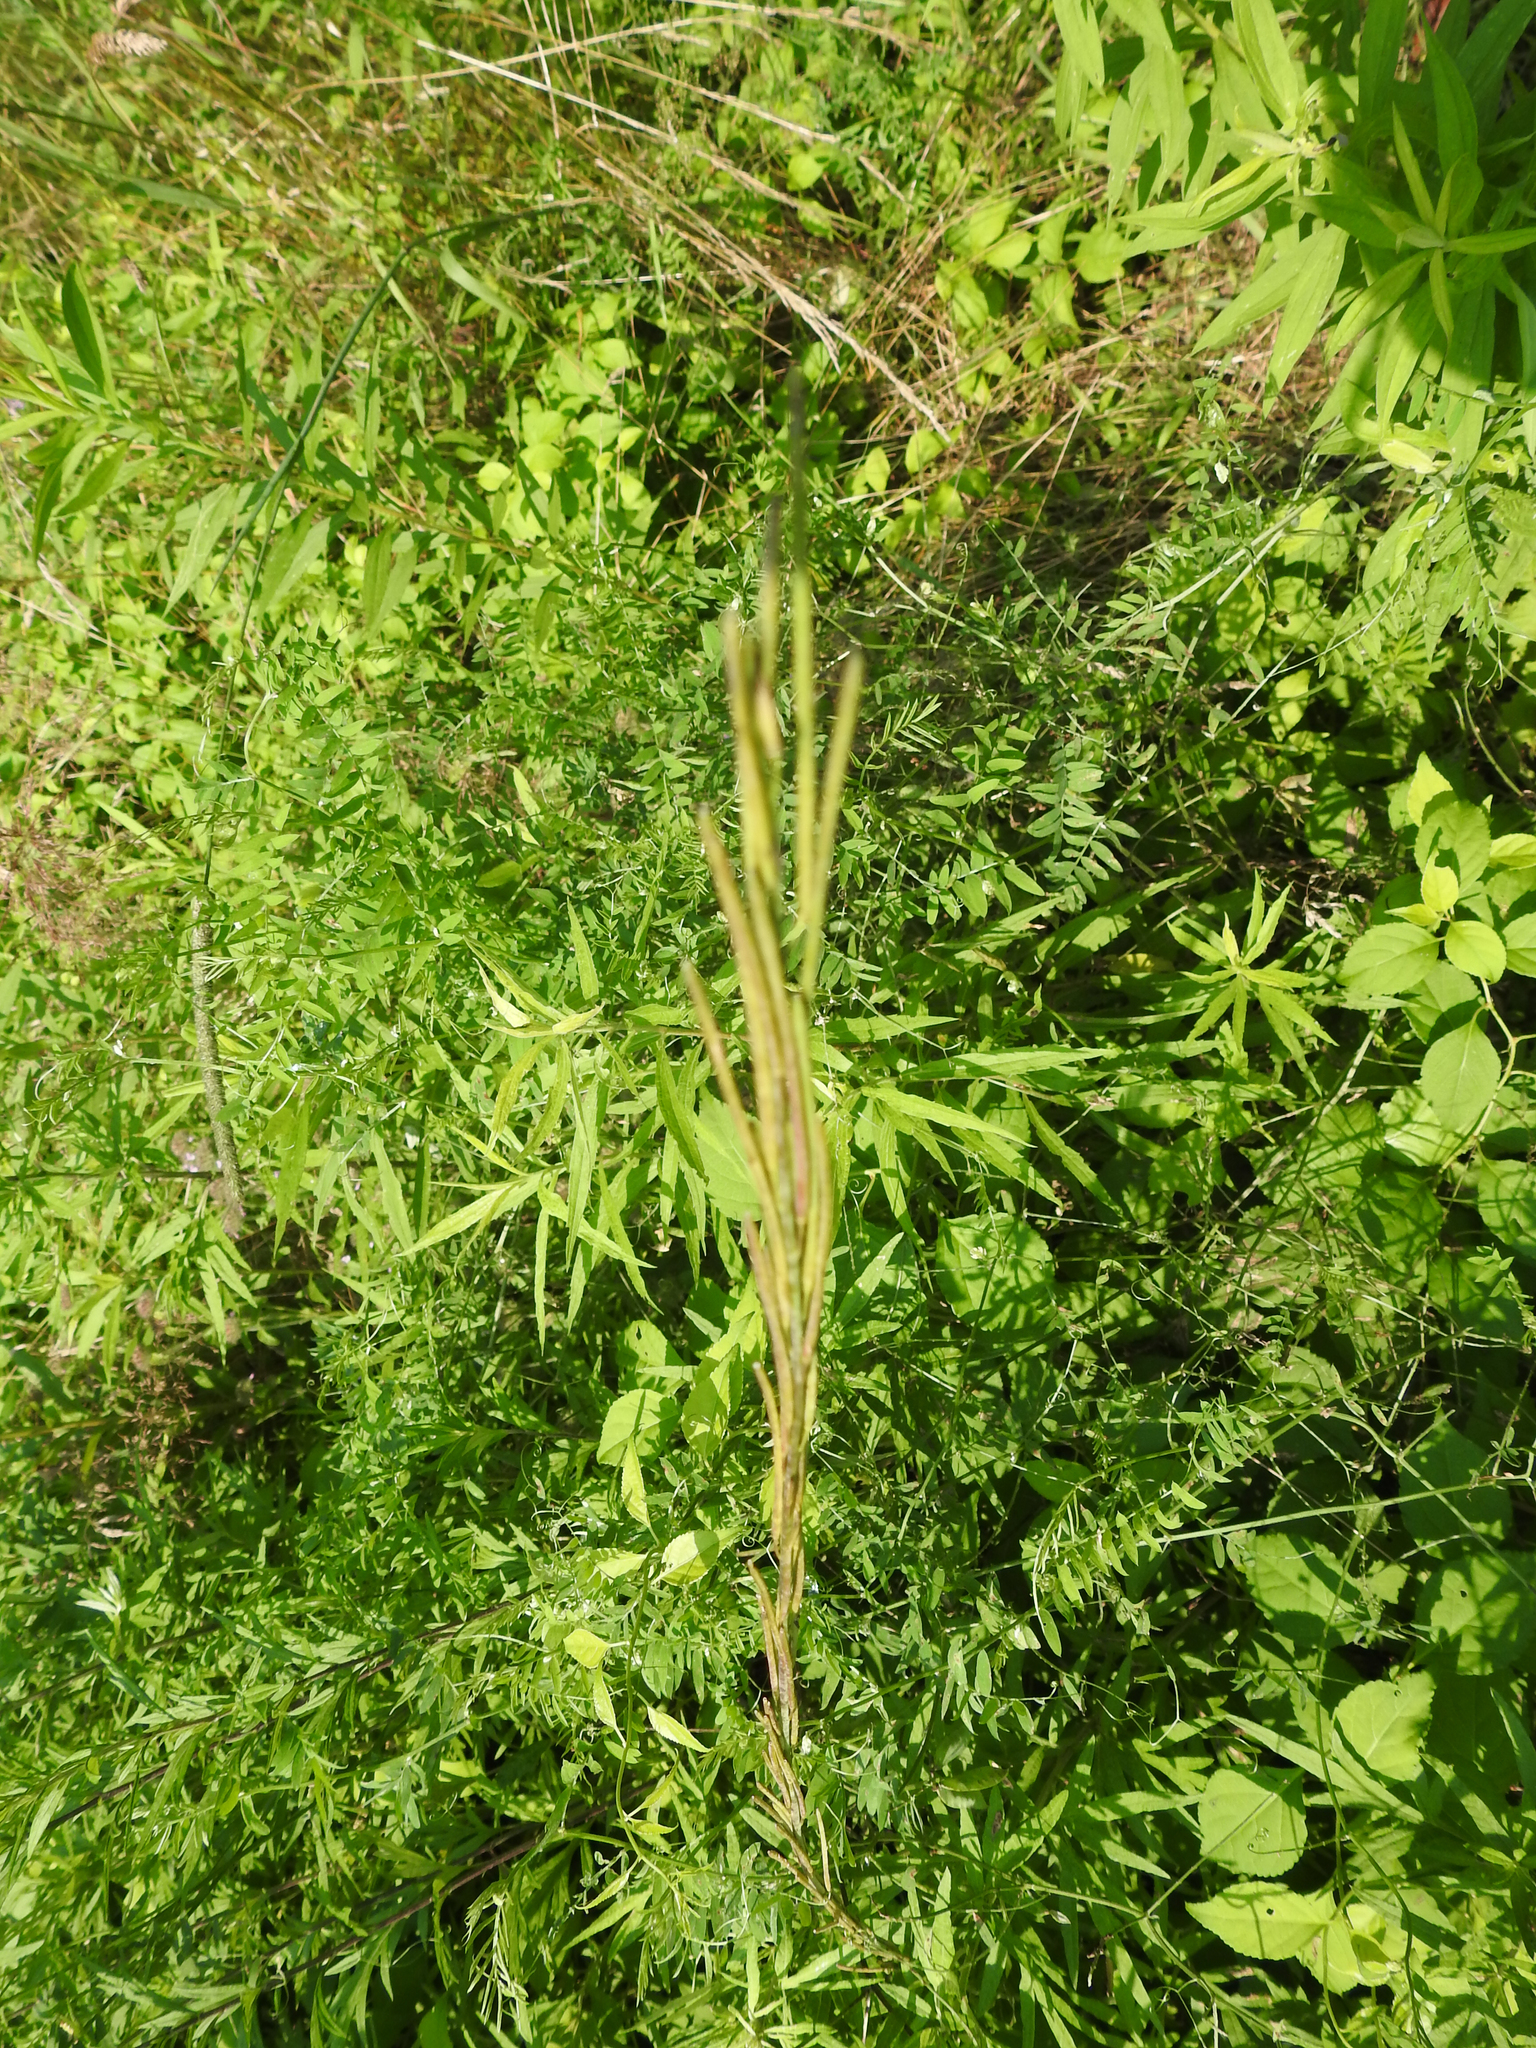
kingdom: Plantae
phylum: Tracheophyta
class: Magnoliopsida
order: Brassicales
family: Brassicaceae
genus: Turritis
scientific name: Turritis glabra
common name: Tower rockcress
